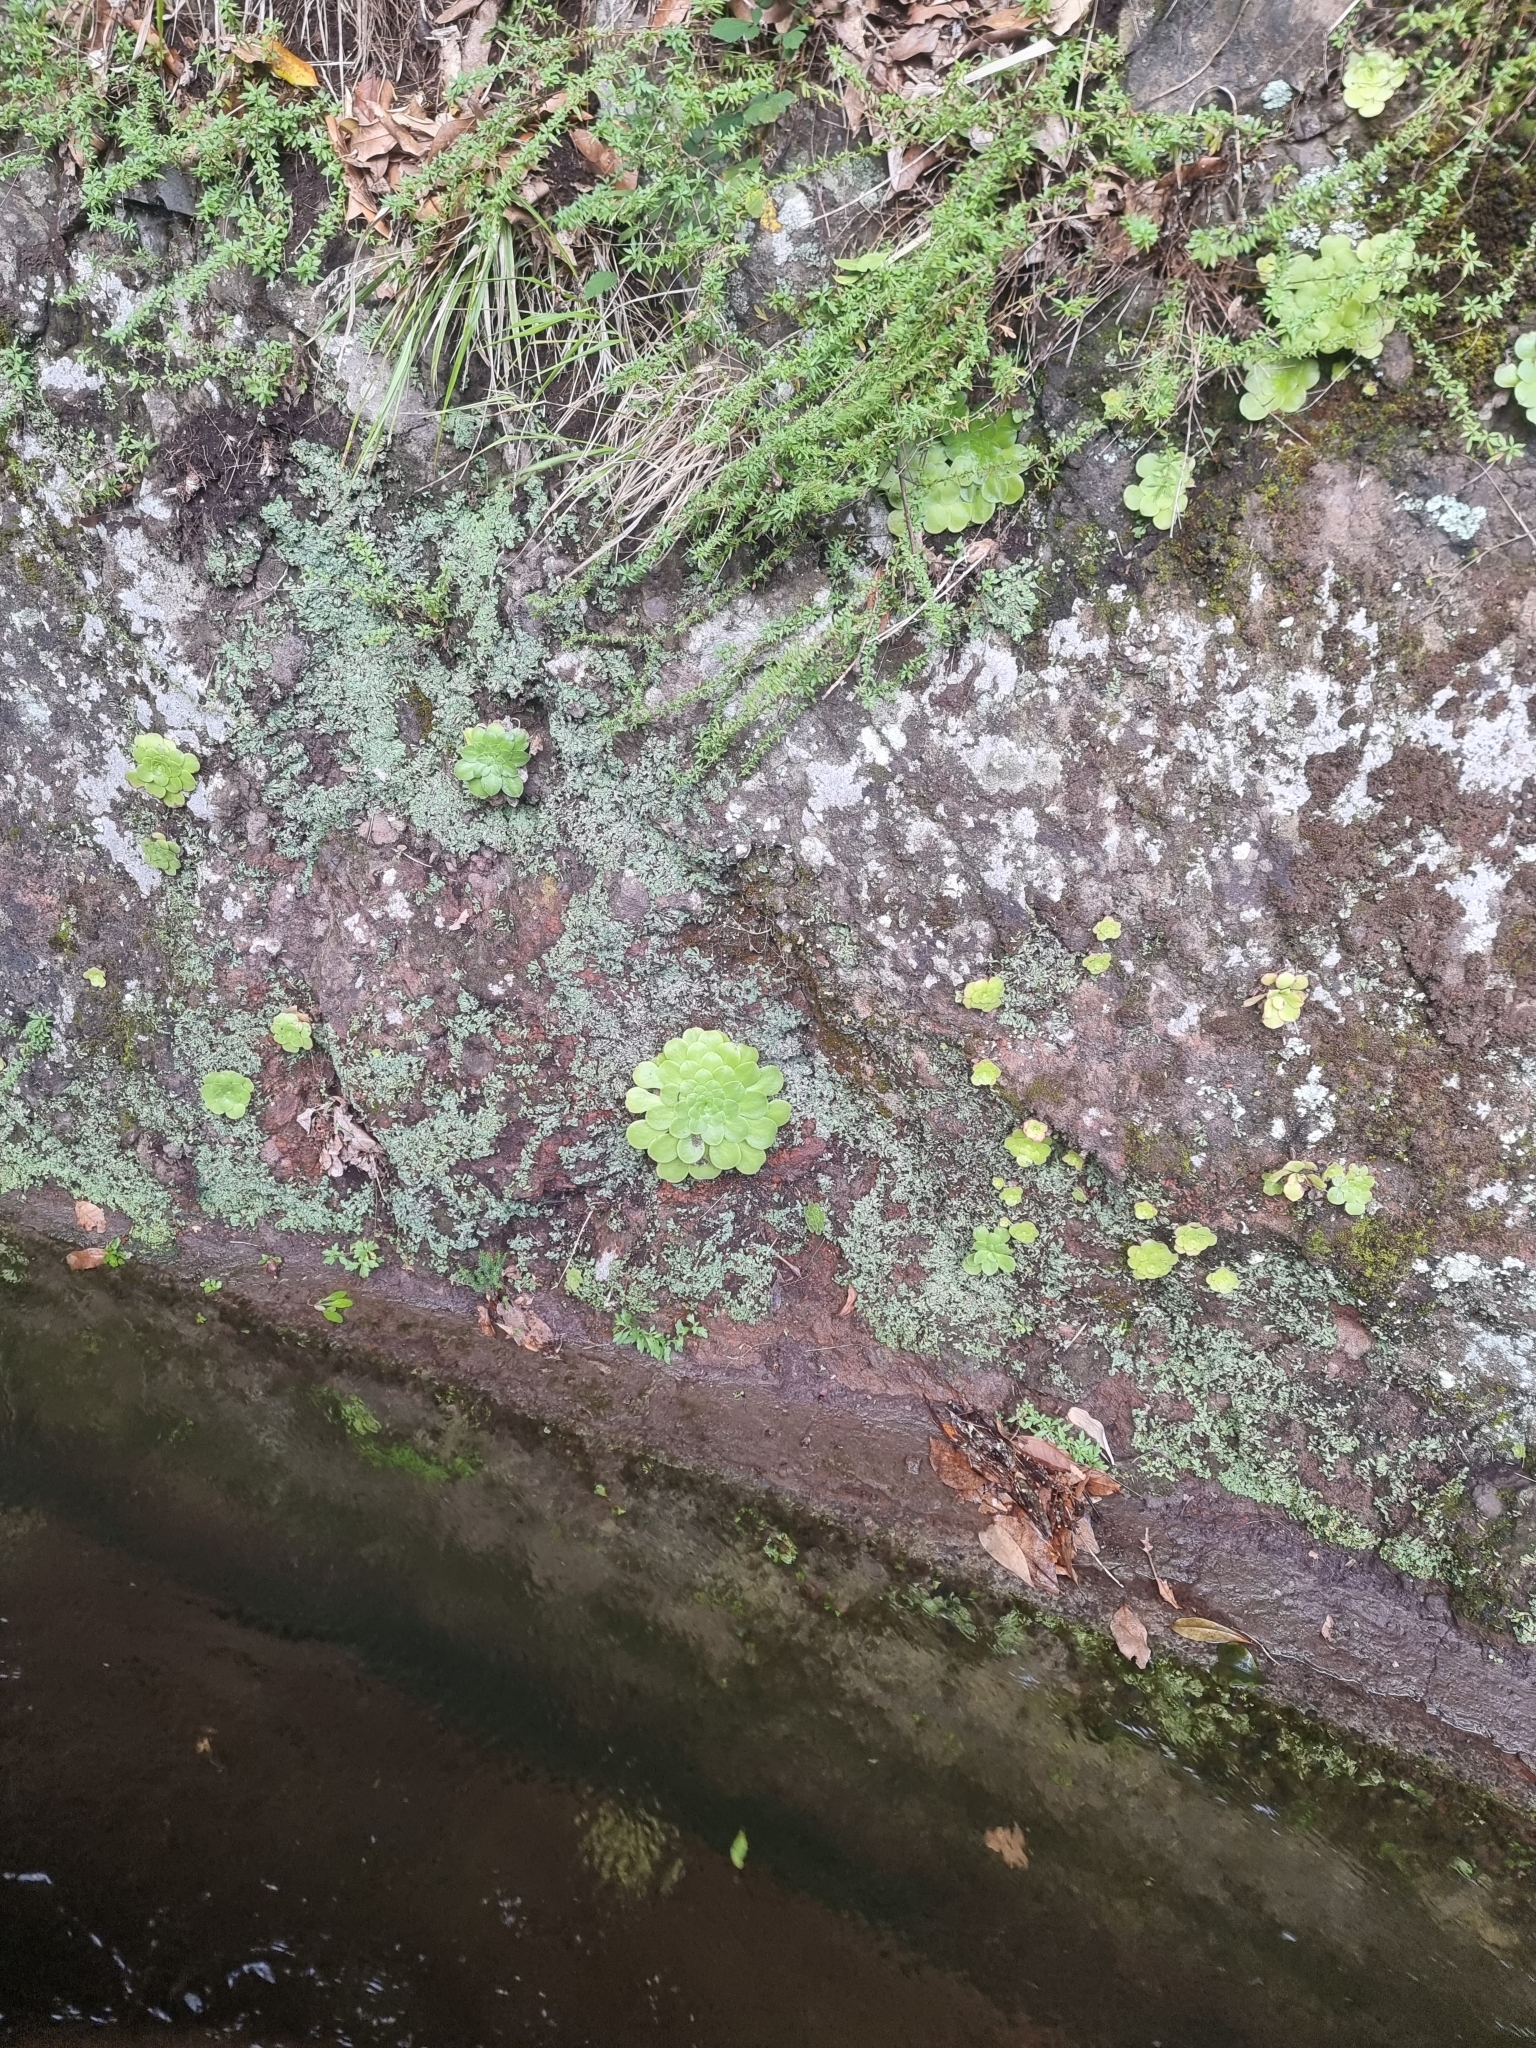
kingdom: Plantae
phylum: Tracheophyta
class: Magnoliopsida
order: Saxifragales
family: Crassulaceae
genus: Aeonium
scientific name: Aeonium glandulosum
